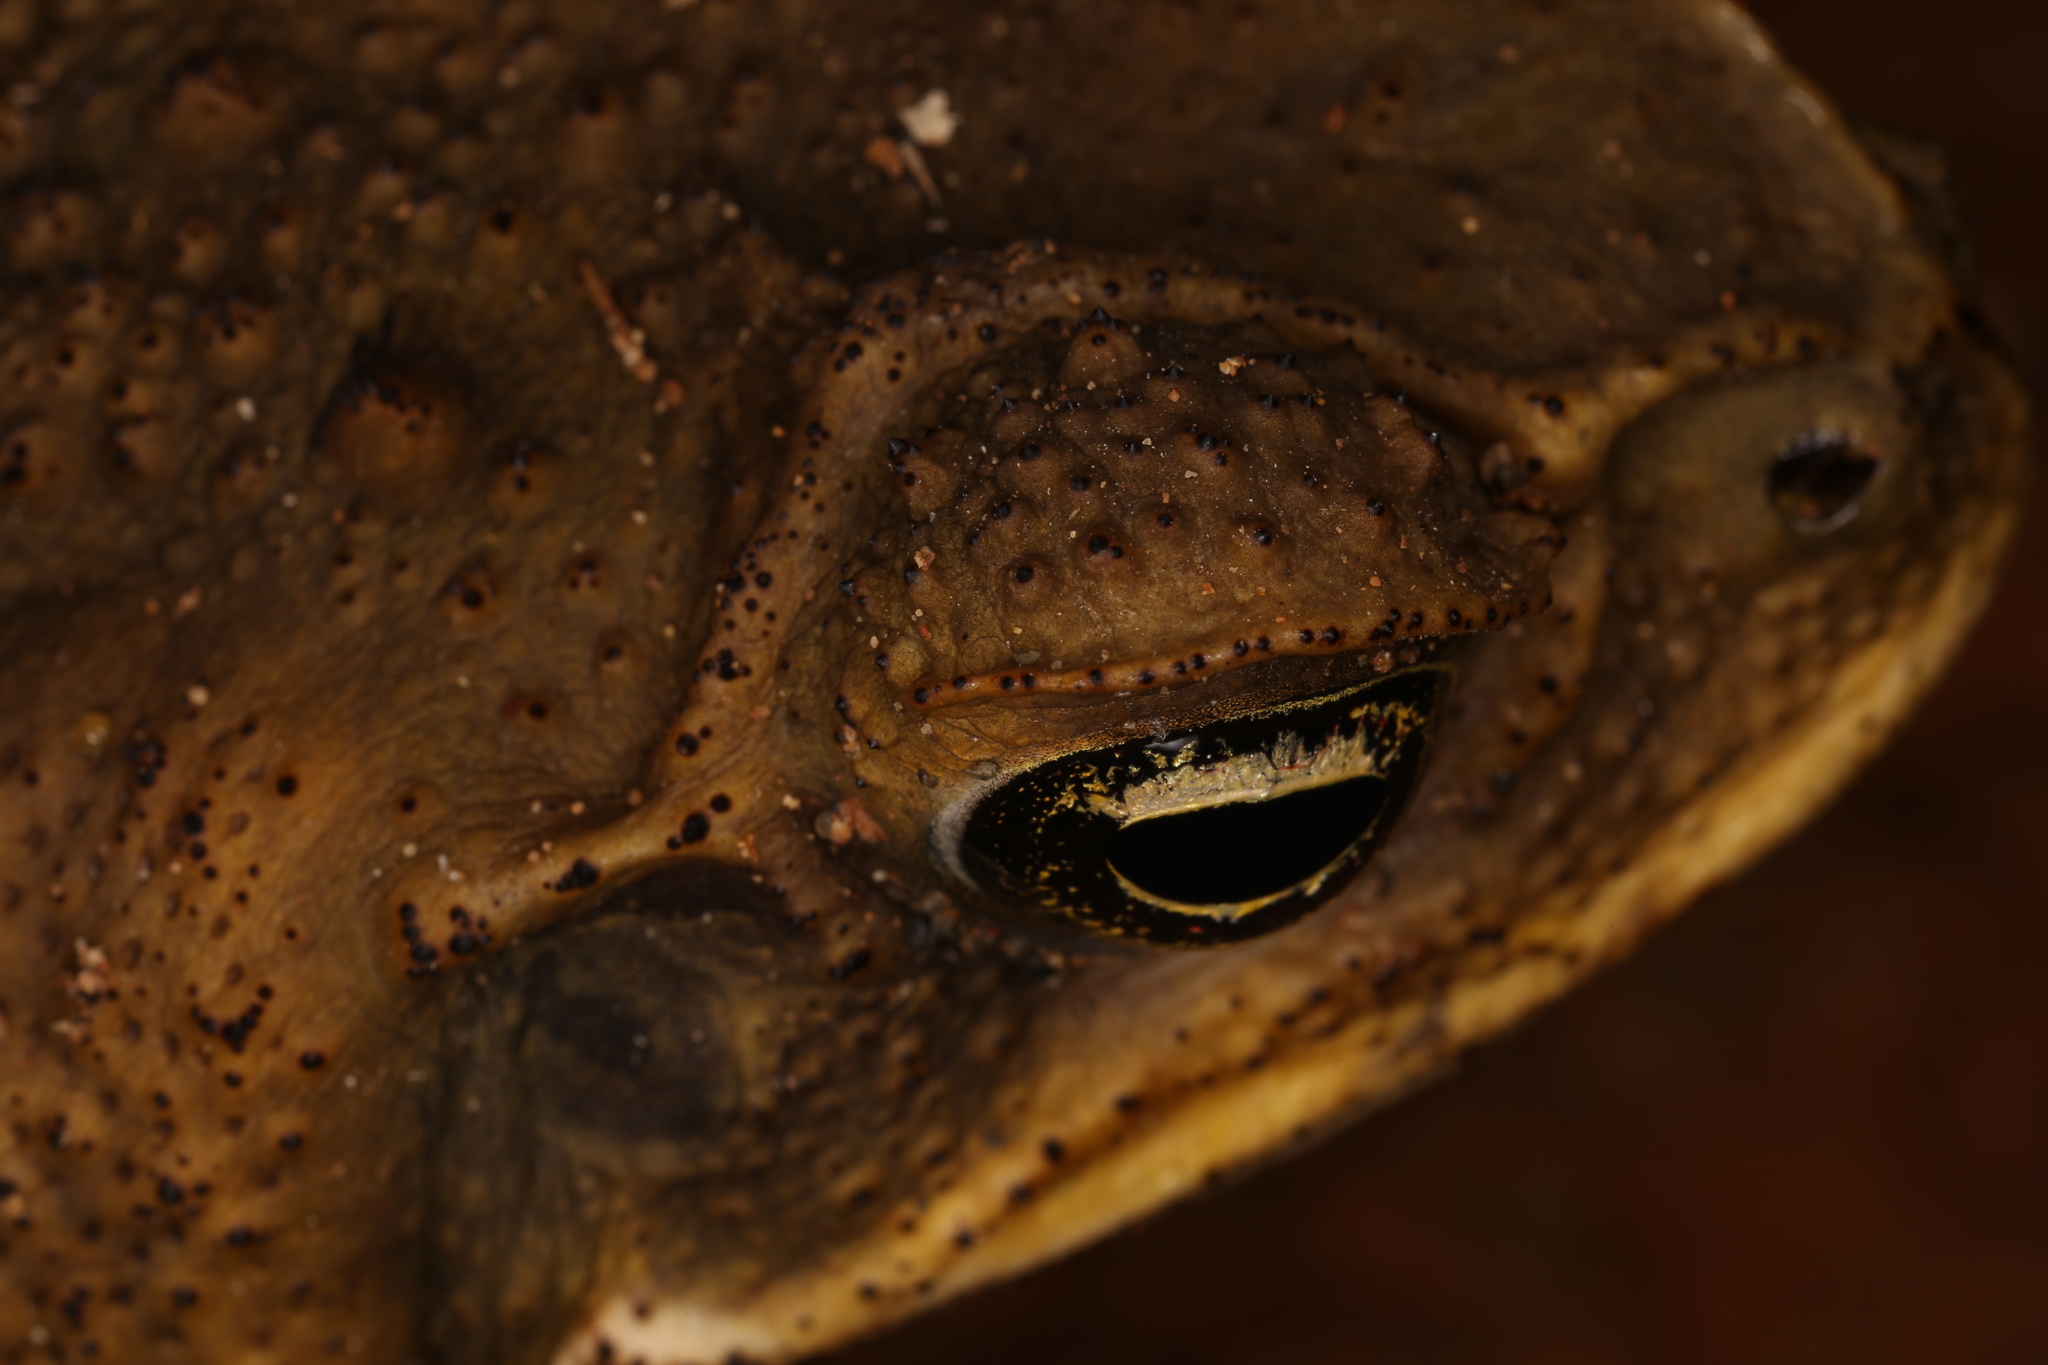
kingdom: Animalia
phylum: Chordata
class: Amphibia
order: Anura
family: Bufonidae
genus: Rhinella
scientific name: Rhinella horribilis
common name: Mesoamerican cane toad
